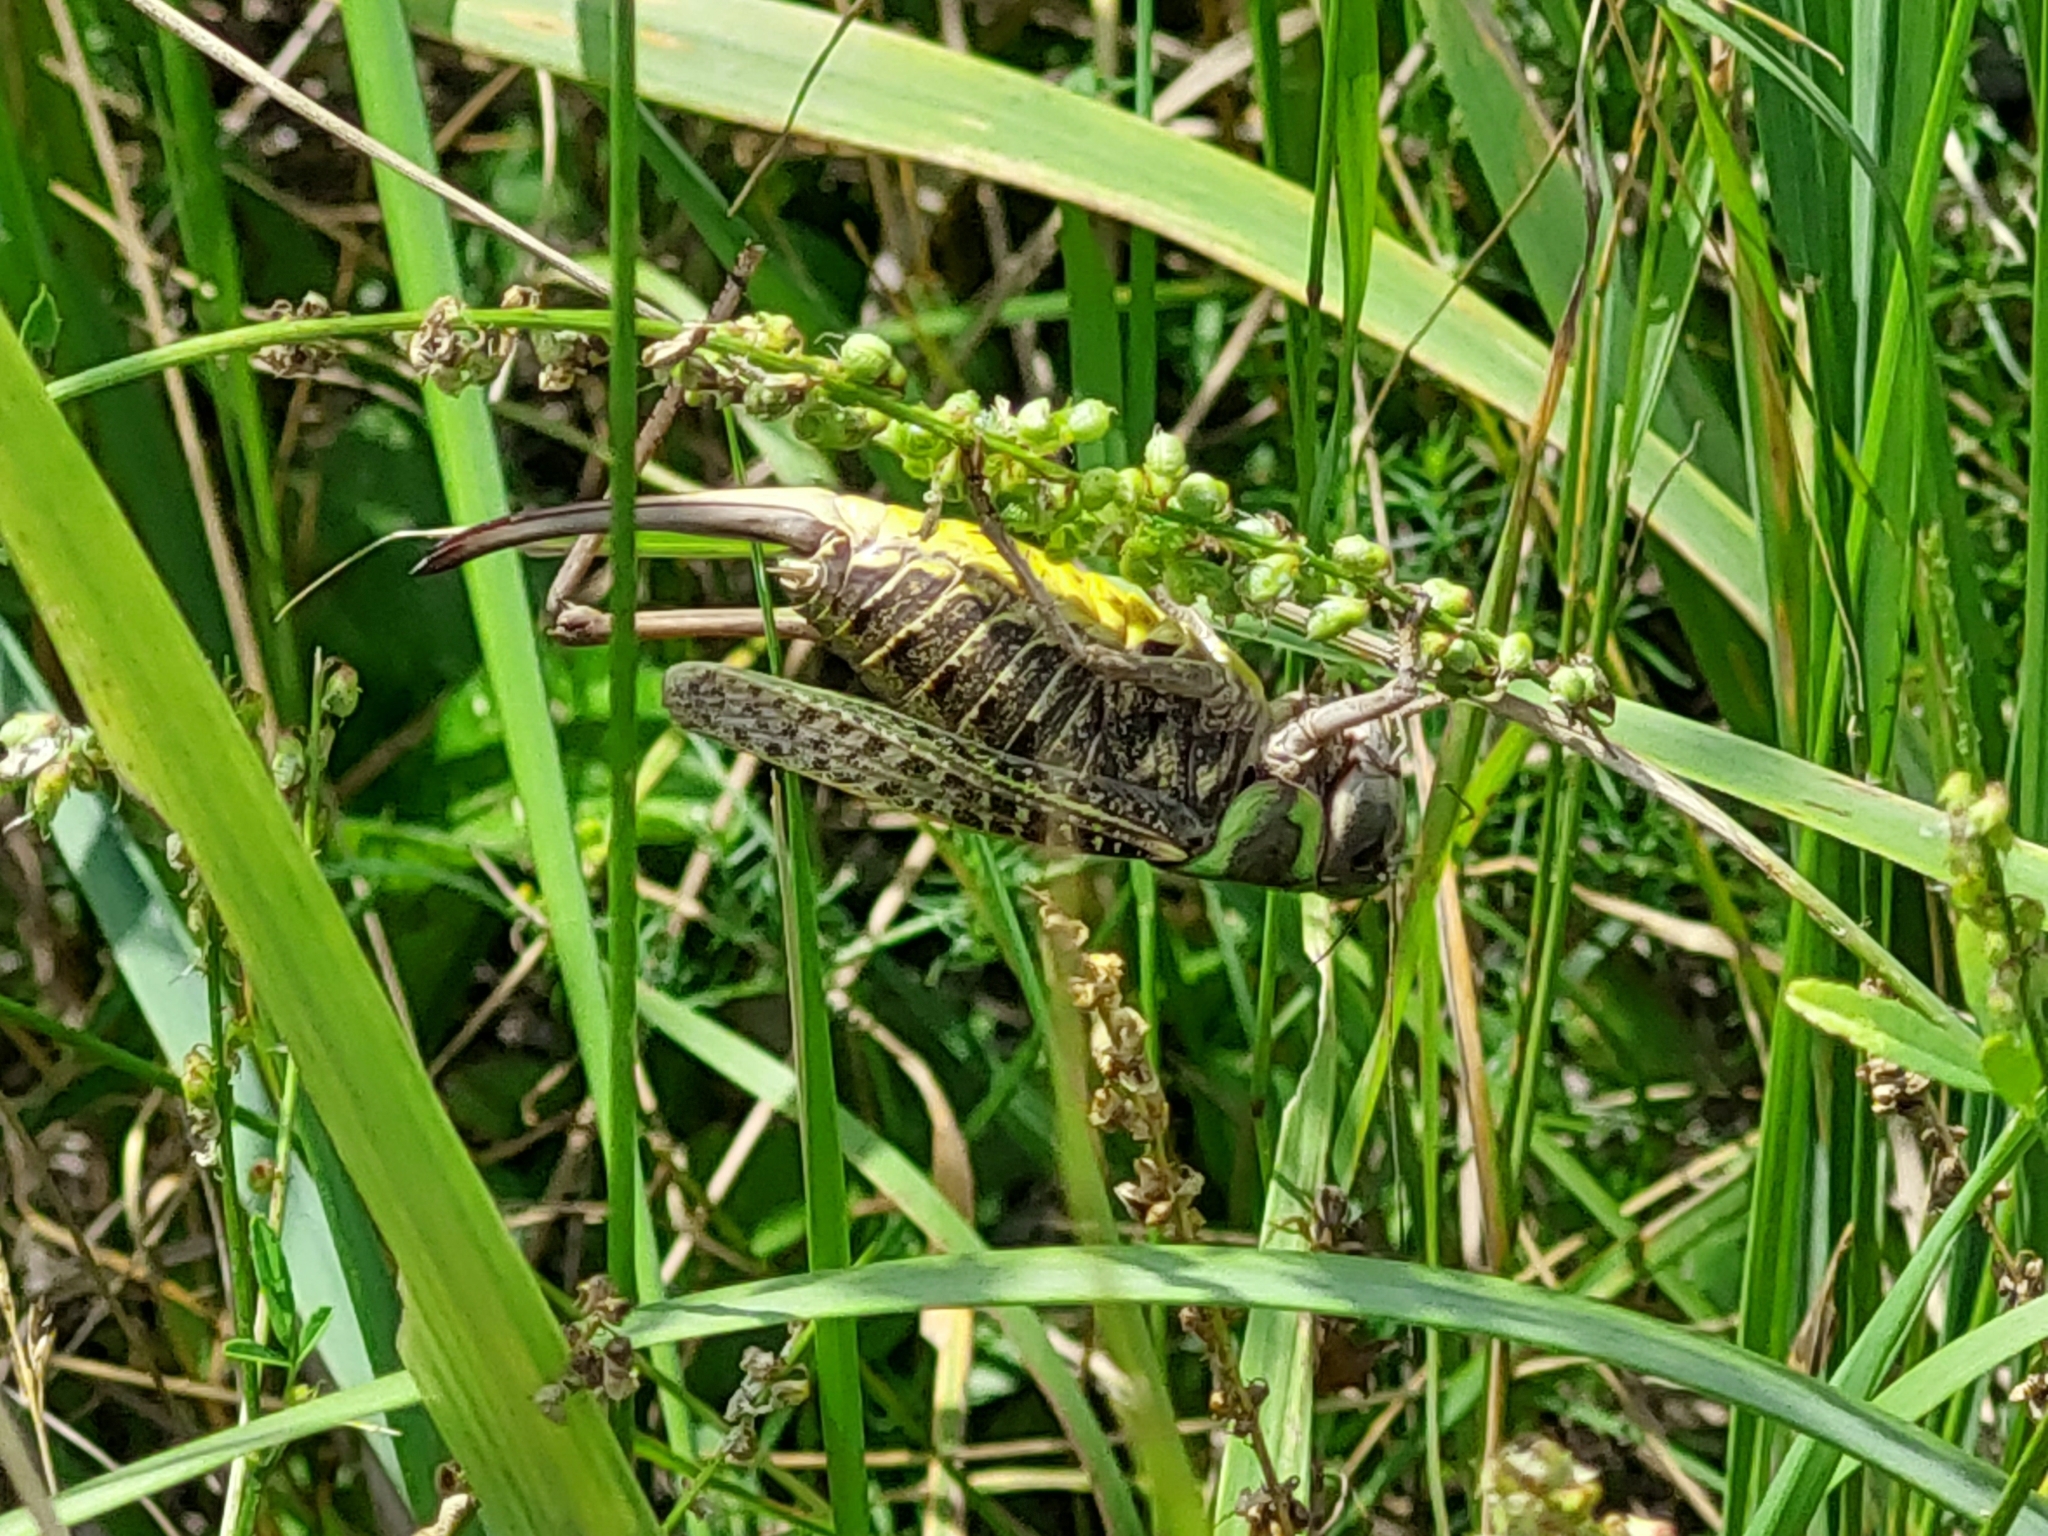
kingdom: Animalia
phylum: Arthropoda
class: Insecta
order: Orthoptera
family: Tettigoniidae
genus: Decticus
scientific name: Decticus verrucivorus
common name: Wart-biter
